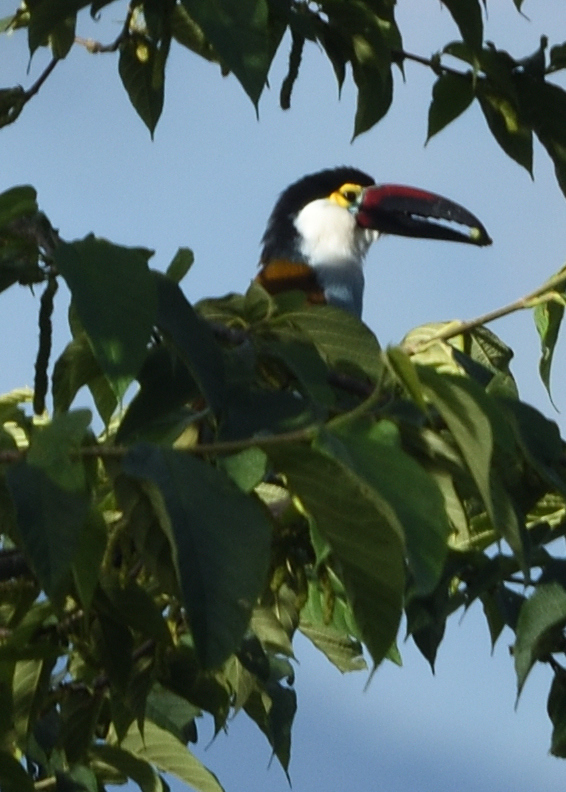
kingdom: Animalia
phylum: Chordata
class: Aves
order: Piciformes
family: Ramphastidae
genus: Andigena
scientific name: Andigena nigrirostris
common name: Black-billed mountain toucan
